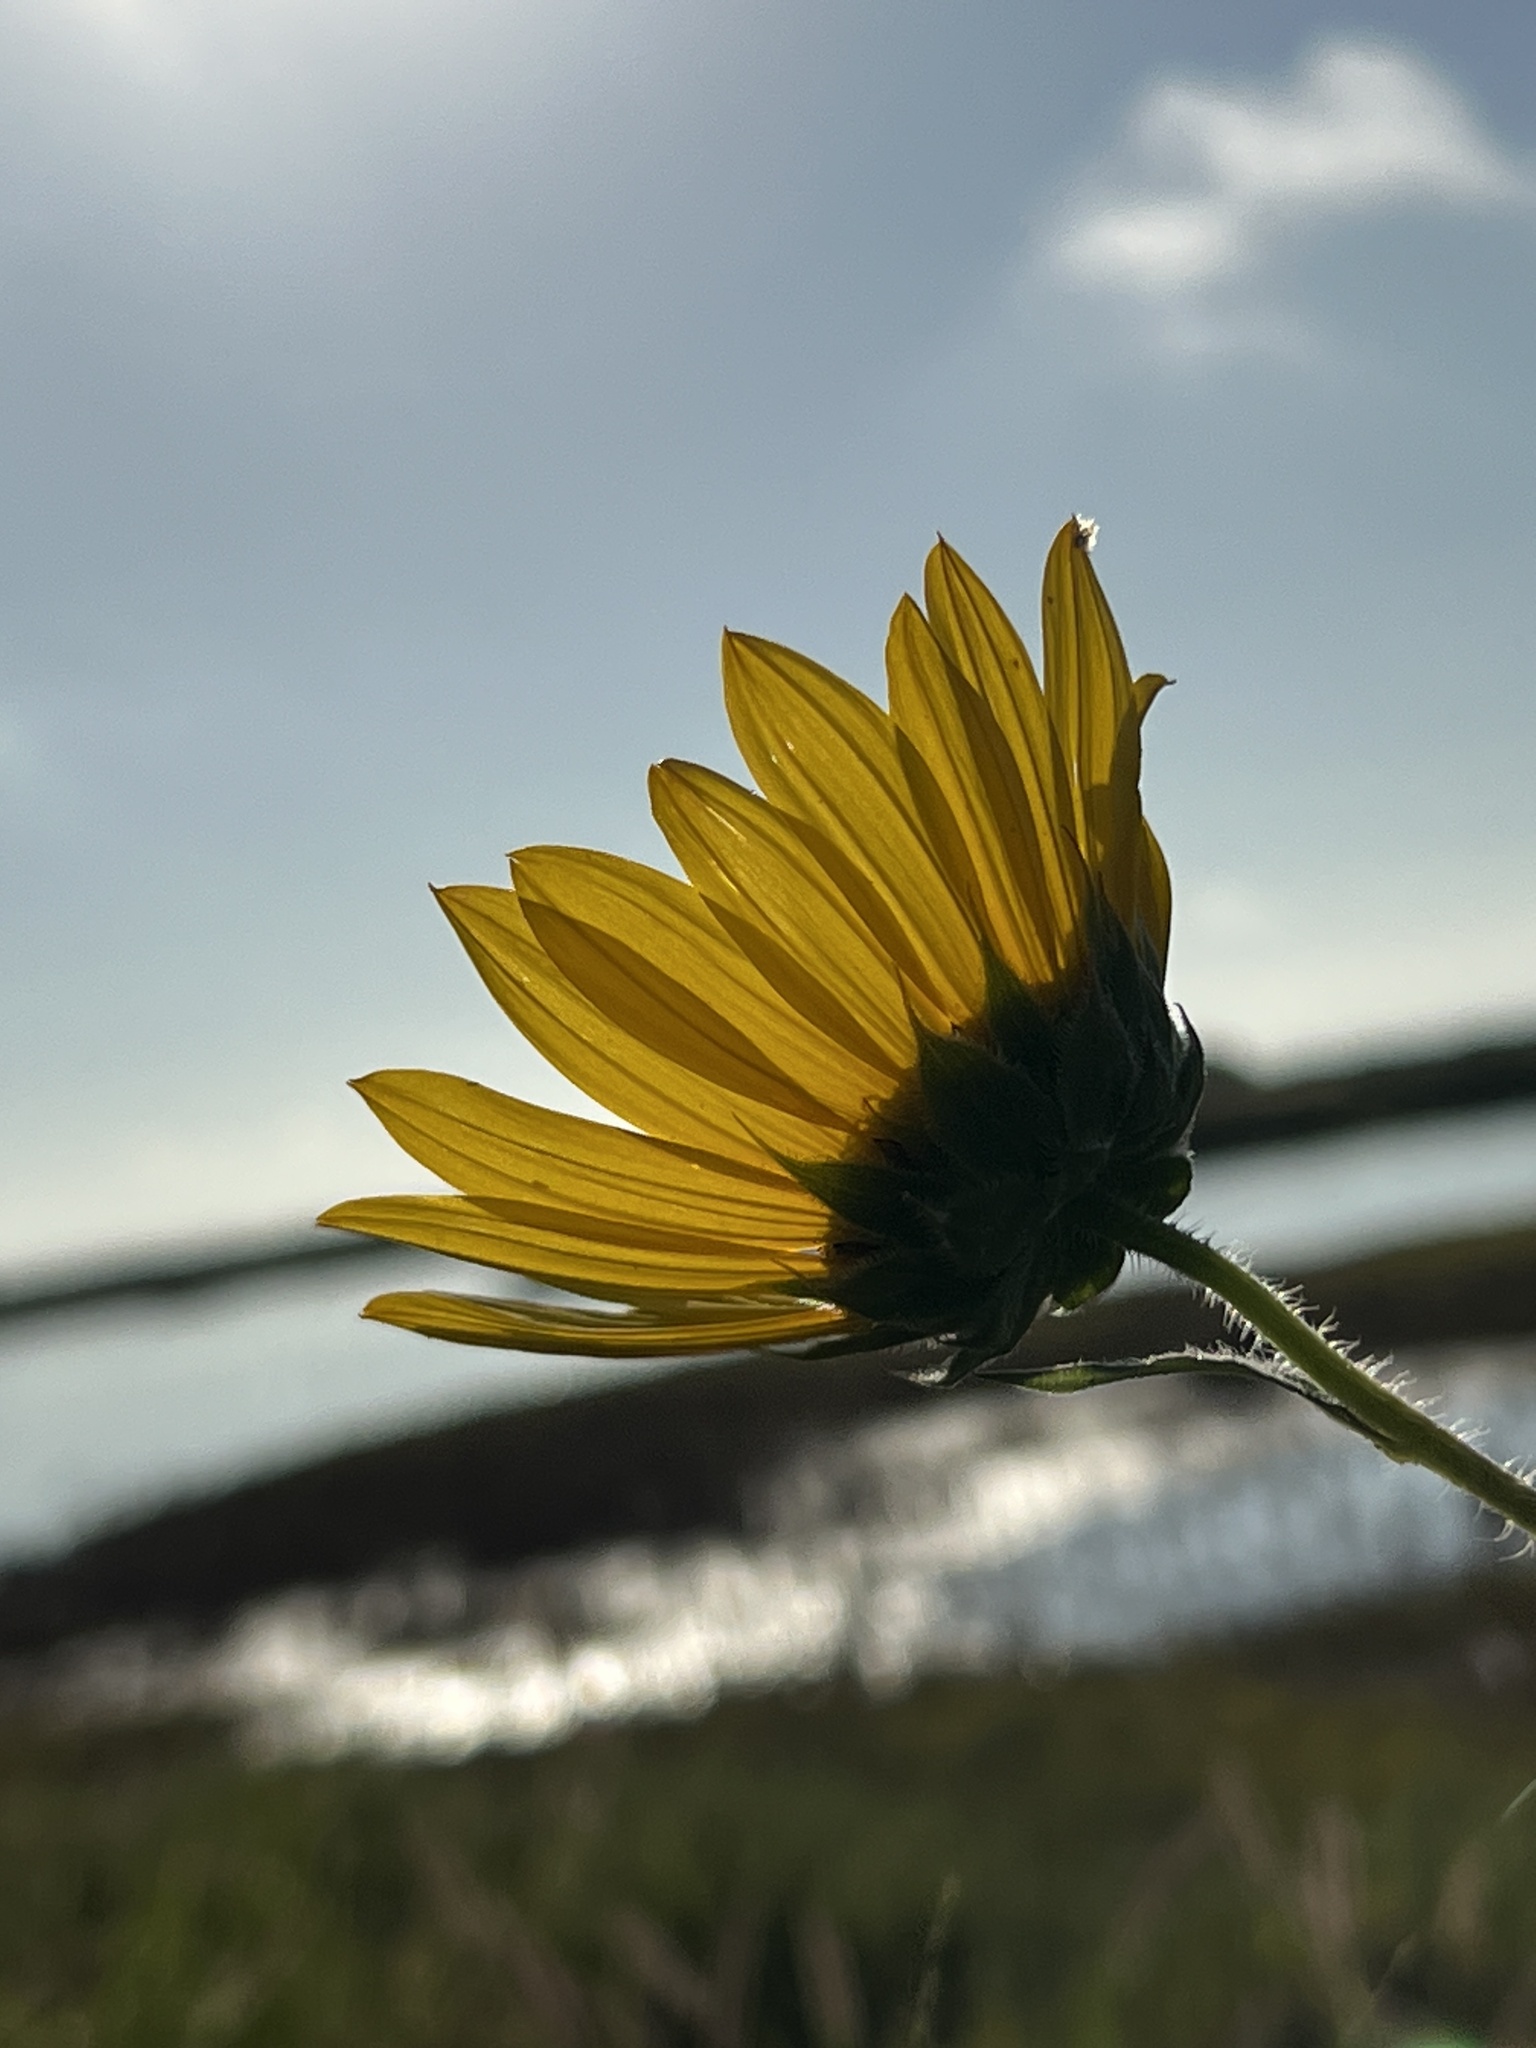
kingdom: Plantae
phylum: Tracheophyta
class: Magnoliopsida
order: Asterales
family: Asteraceae
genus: Helianthus
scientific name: Helianthus annuus
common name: Sunflower
